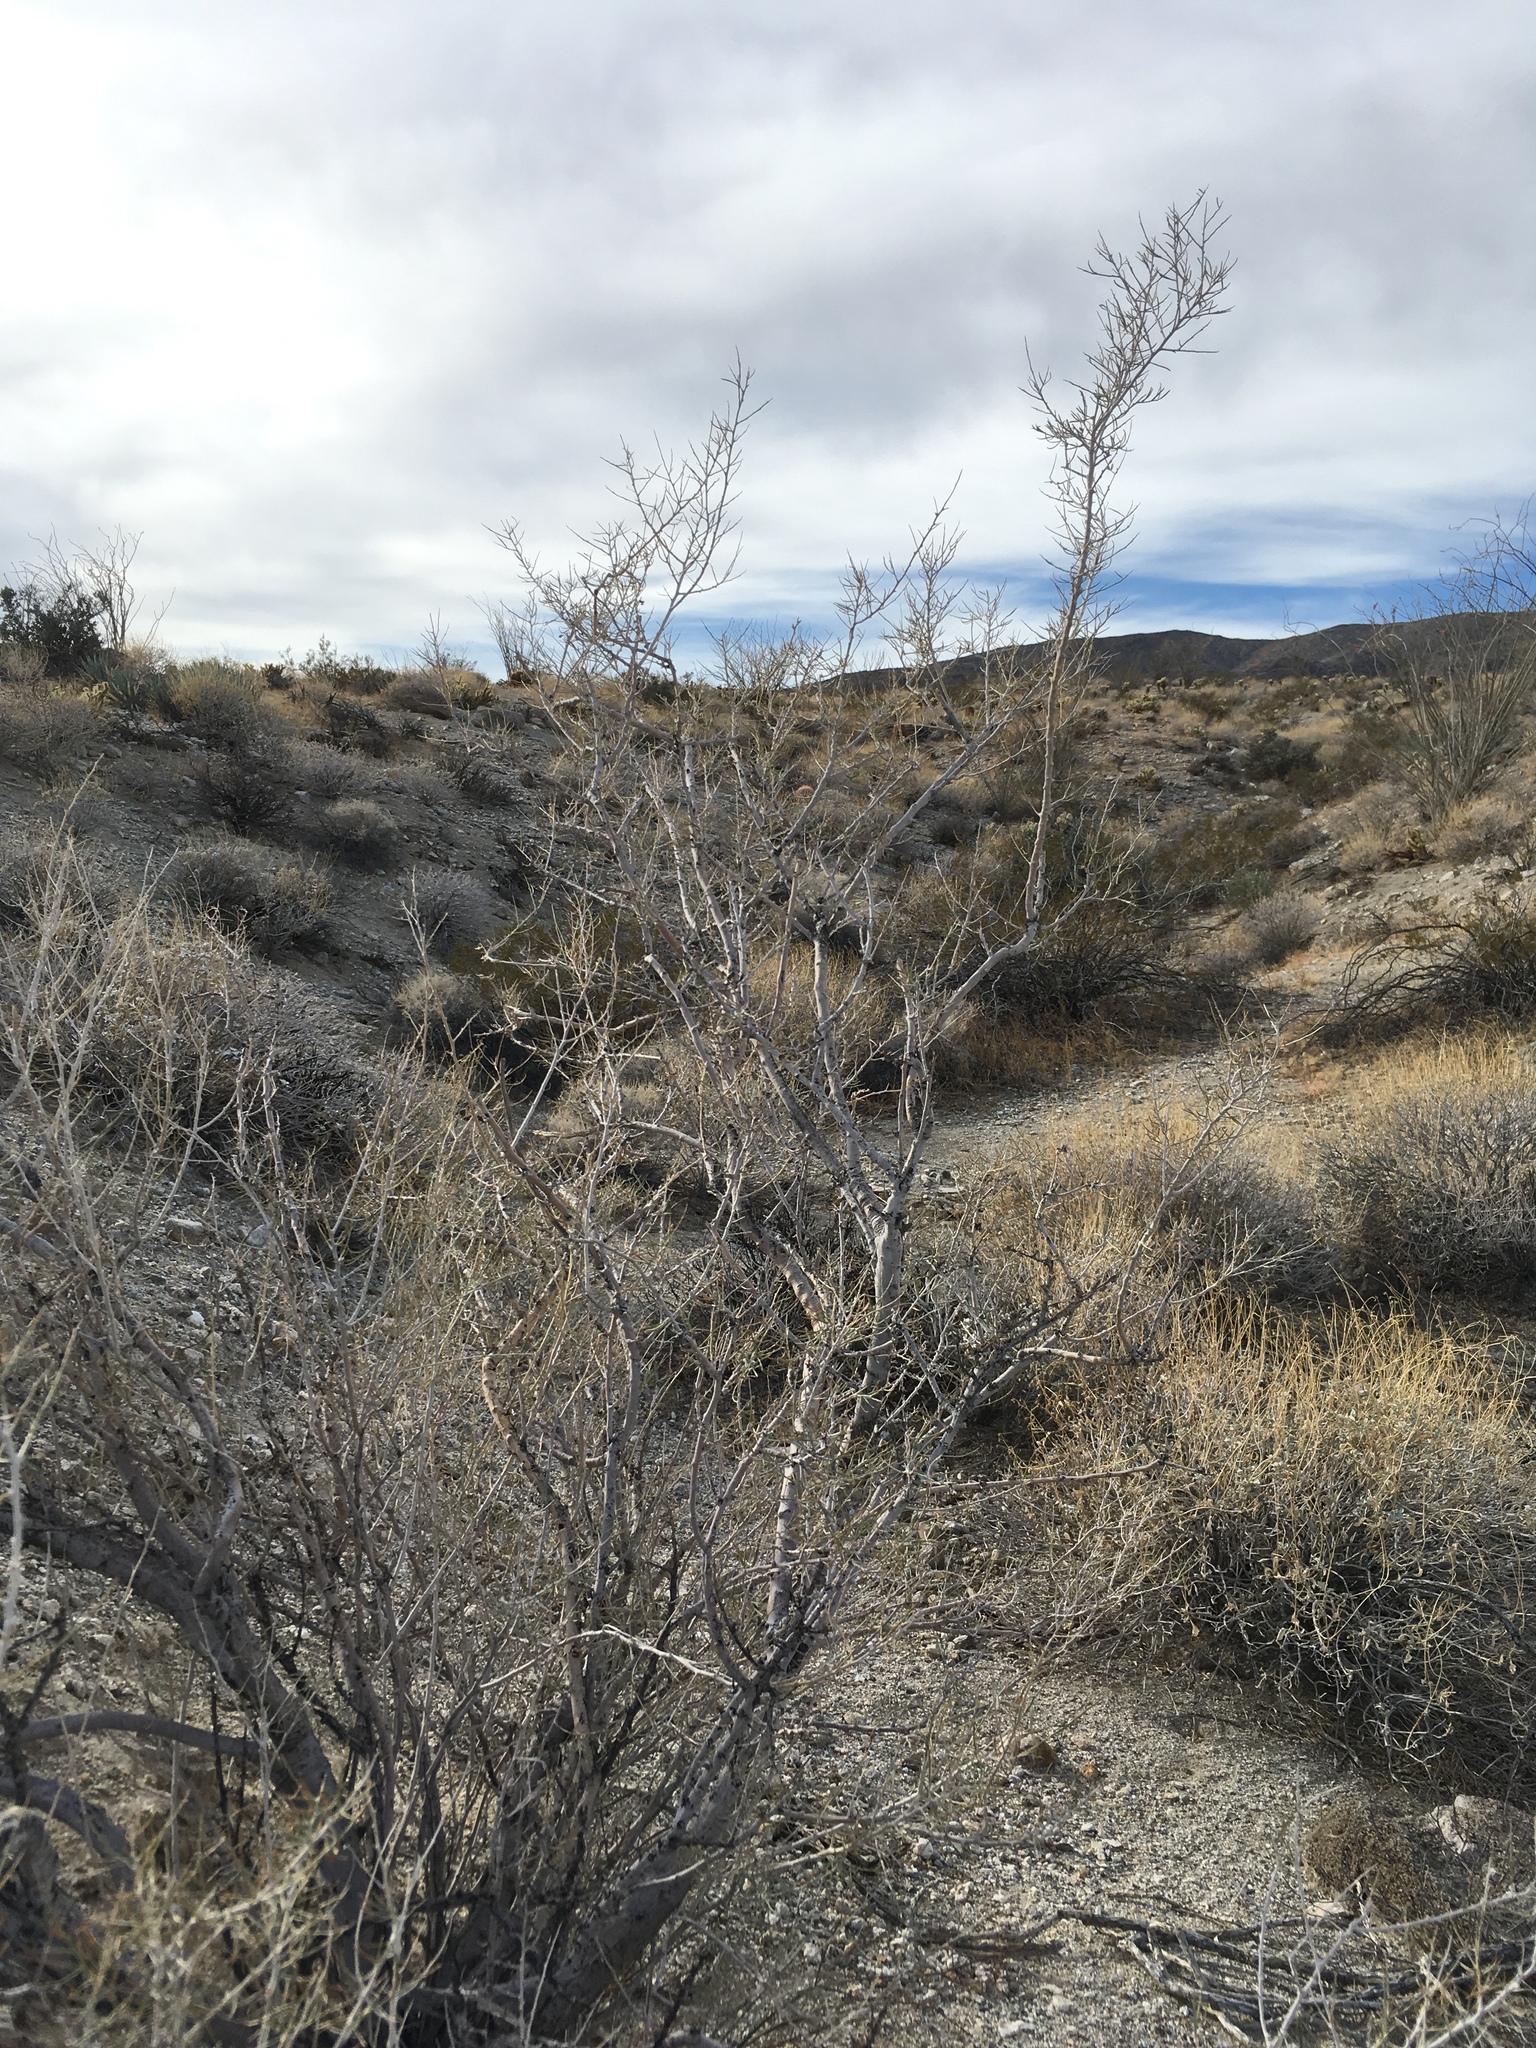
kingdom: Plantae
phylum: Tracheophyta
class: Magnoliopsida
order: Fabales
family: Fabaceae
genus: Psorothamnus
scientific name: Psorothamnus schottii
